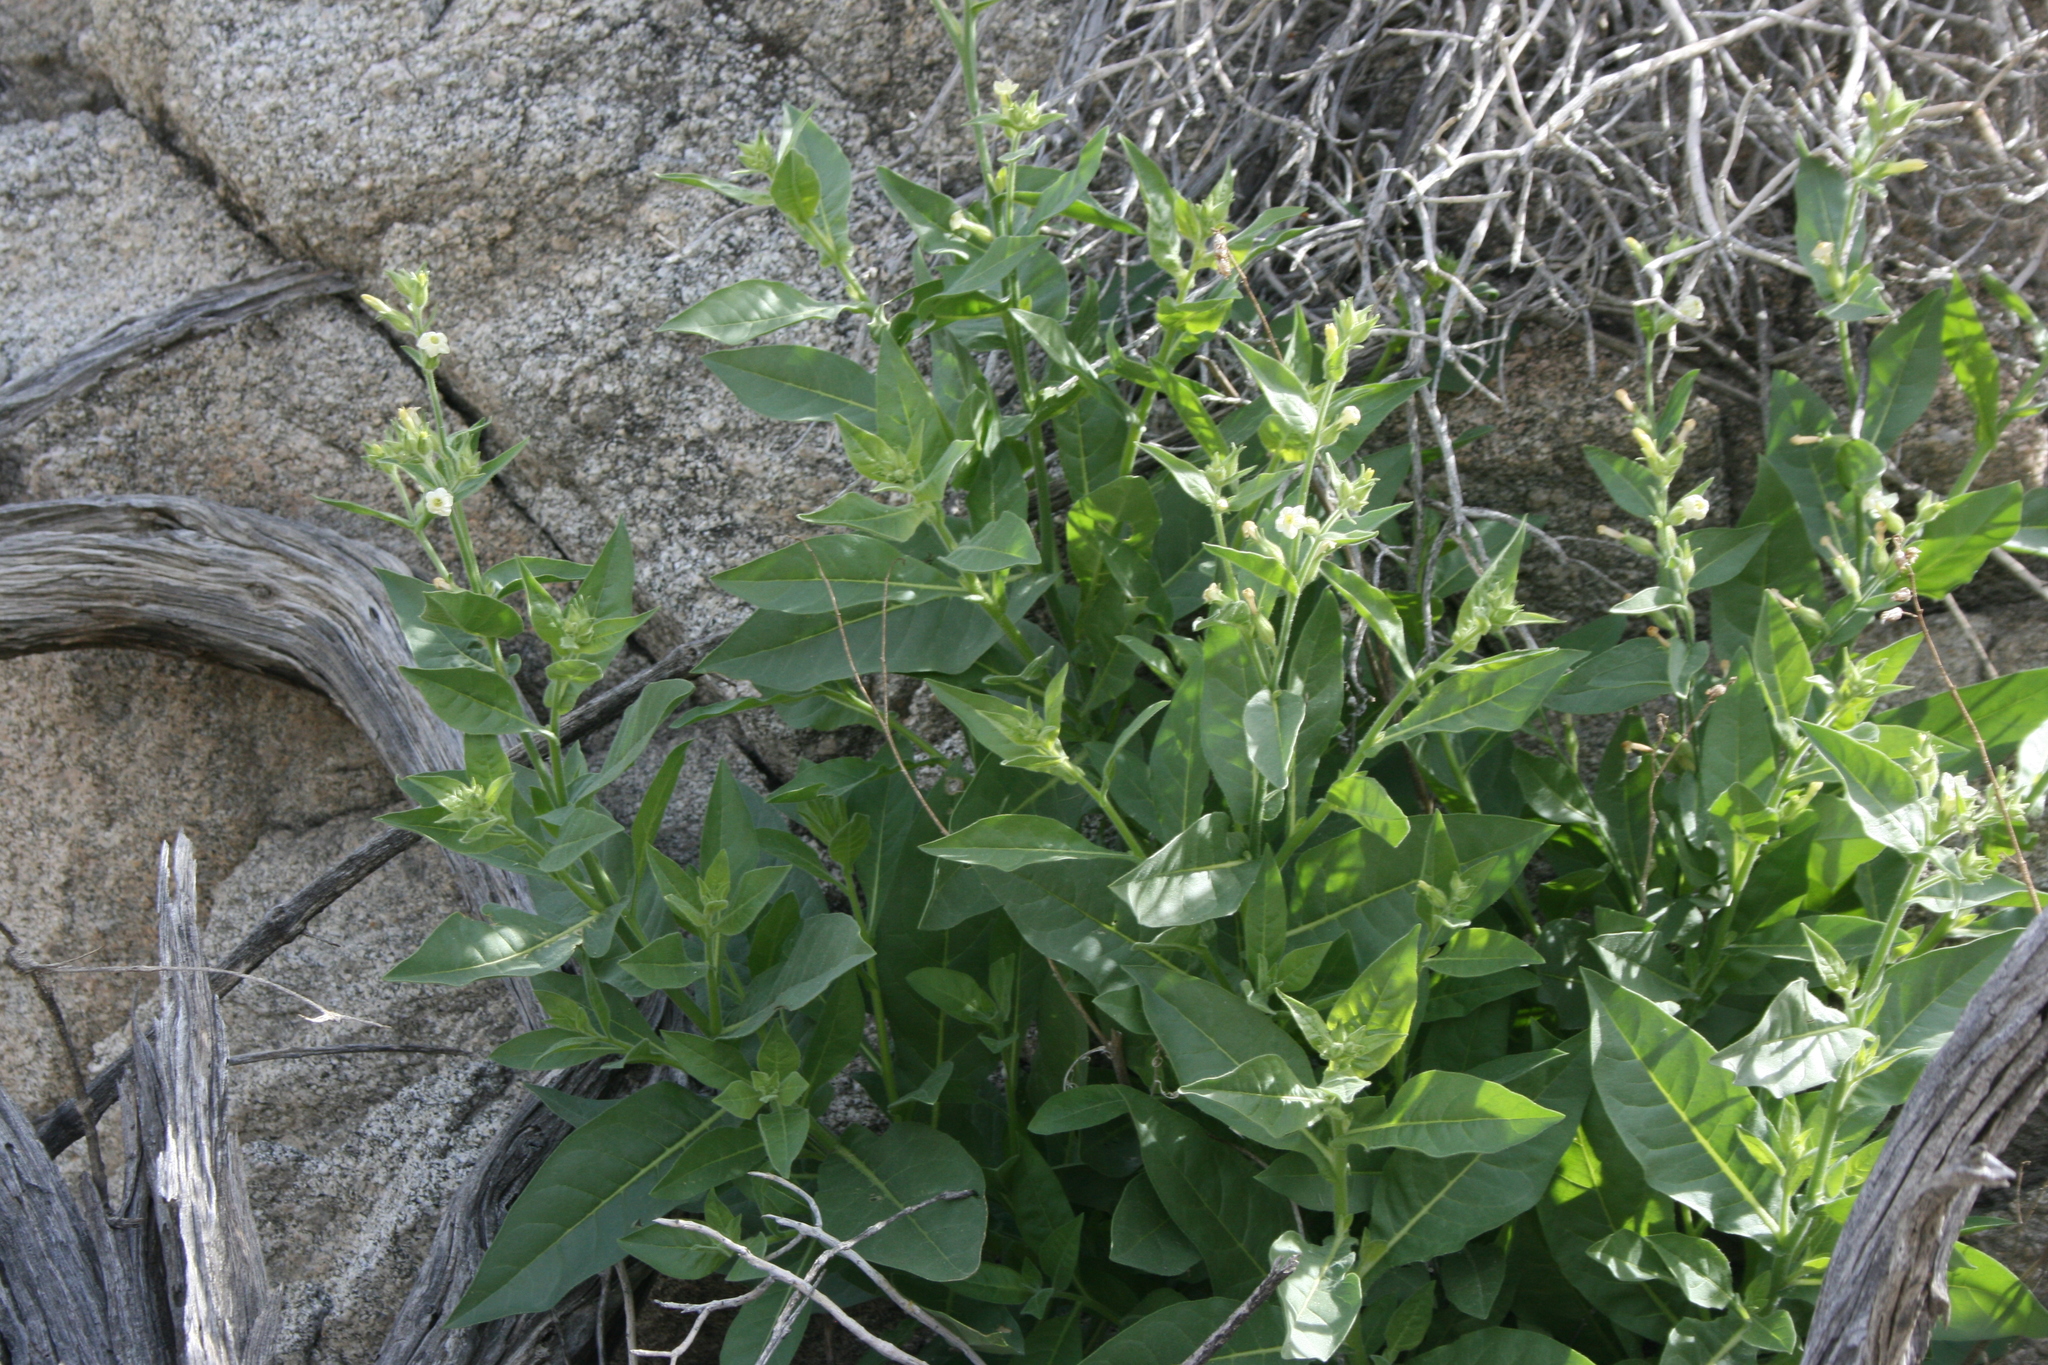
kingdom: Plantae
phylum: Tracheophyta
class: Magnoliopsida
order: Solanales
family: Solanaceae
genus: Nicotiana
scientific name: Nicotiana obtusifolia
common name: Desert tobacco
